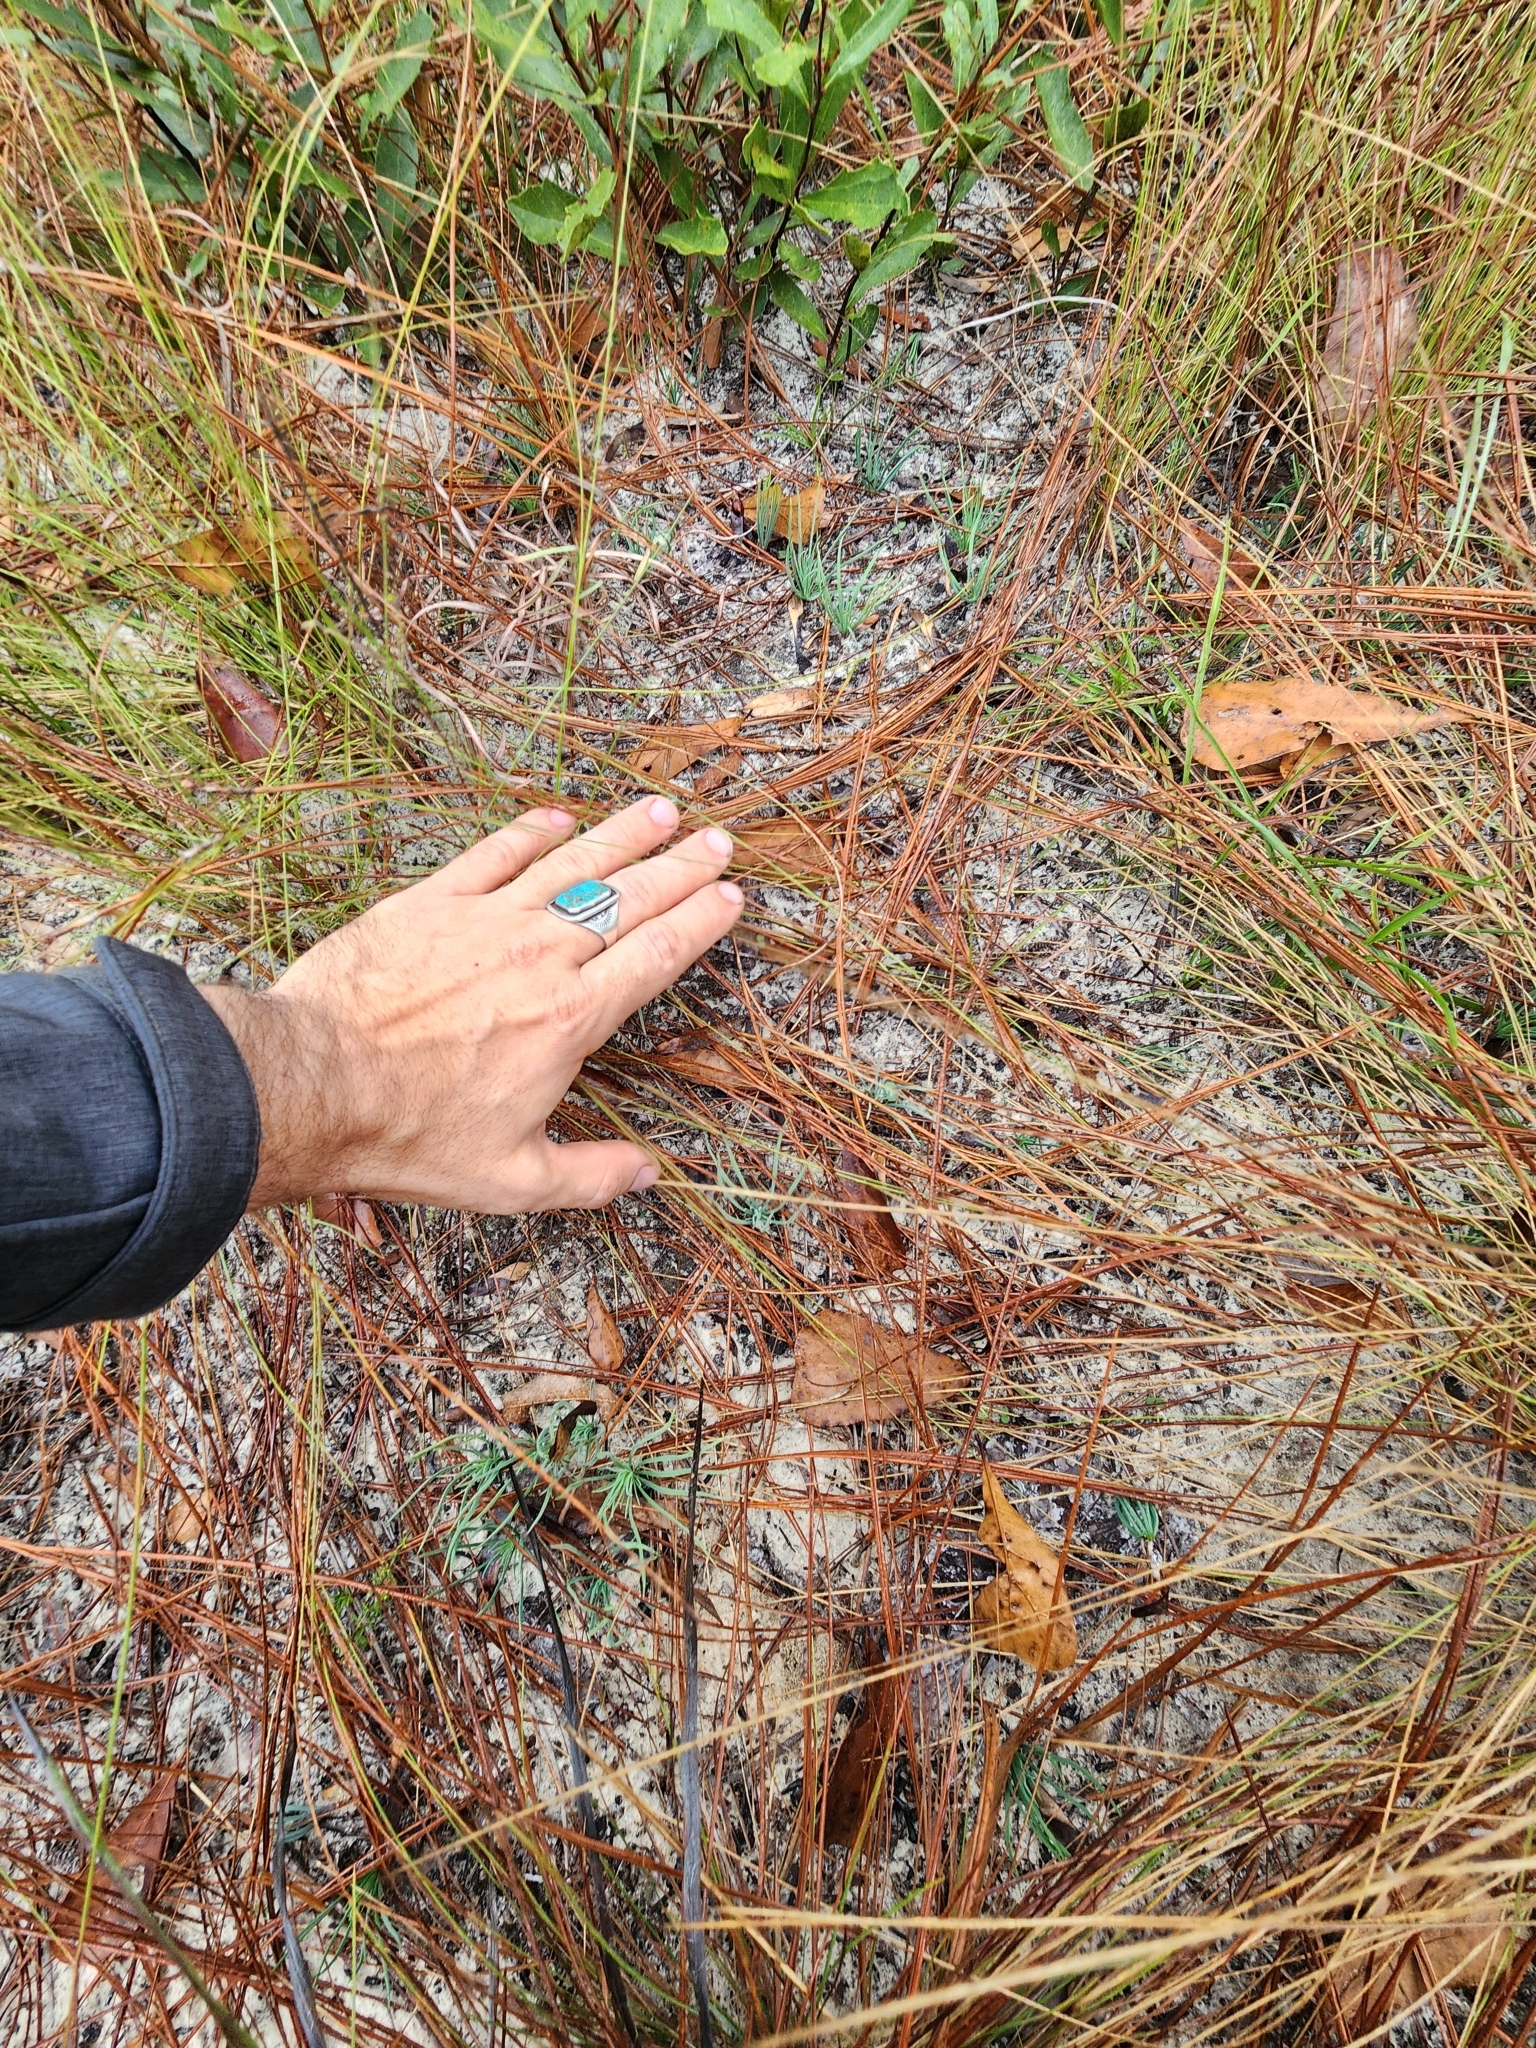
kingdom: Plantae
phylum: Tracheophyta
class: Pinopsida
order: Pinales
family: Pinaceae
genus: Pinus
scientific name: Pinus palustris
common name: Longleaf pine
